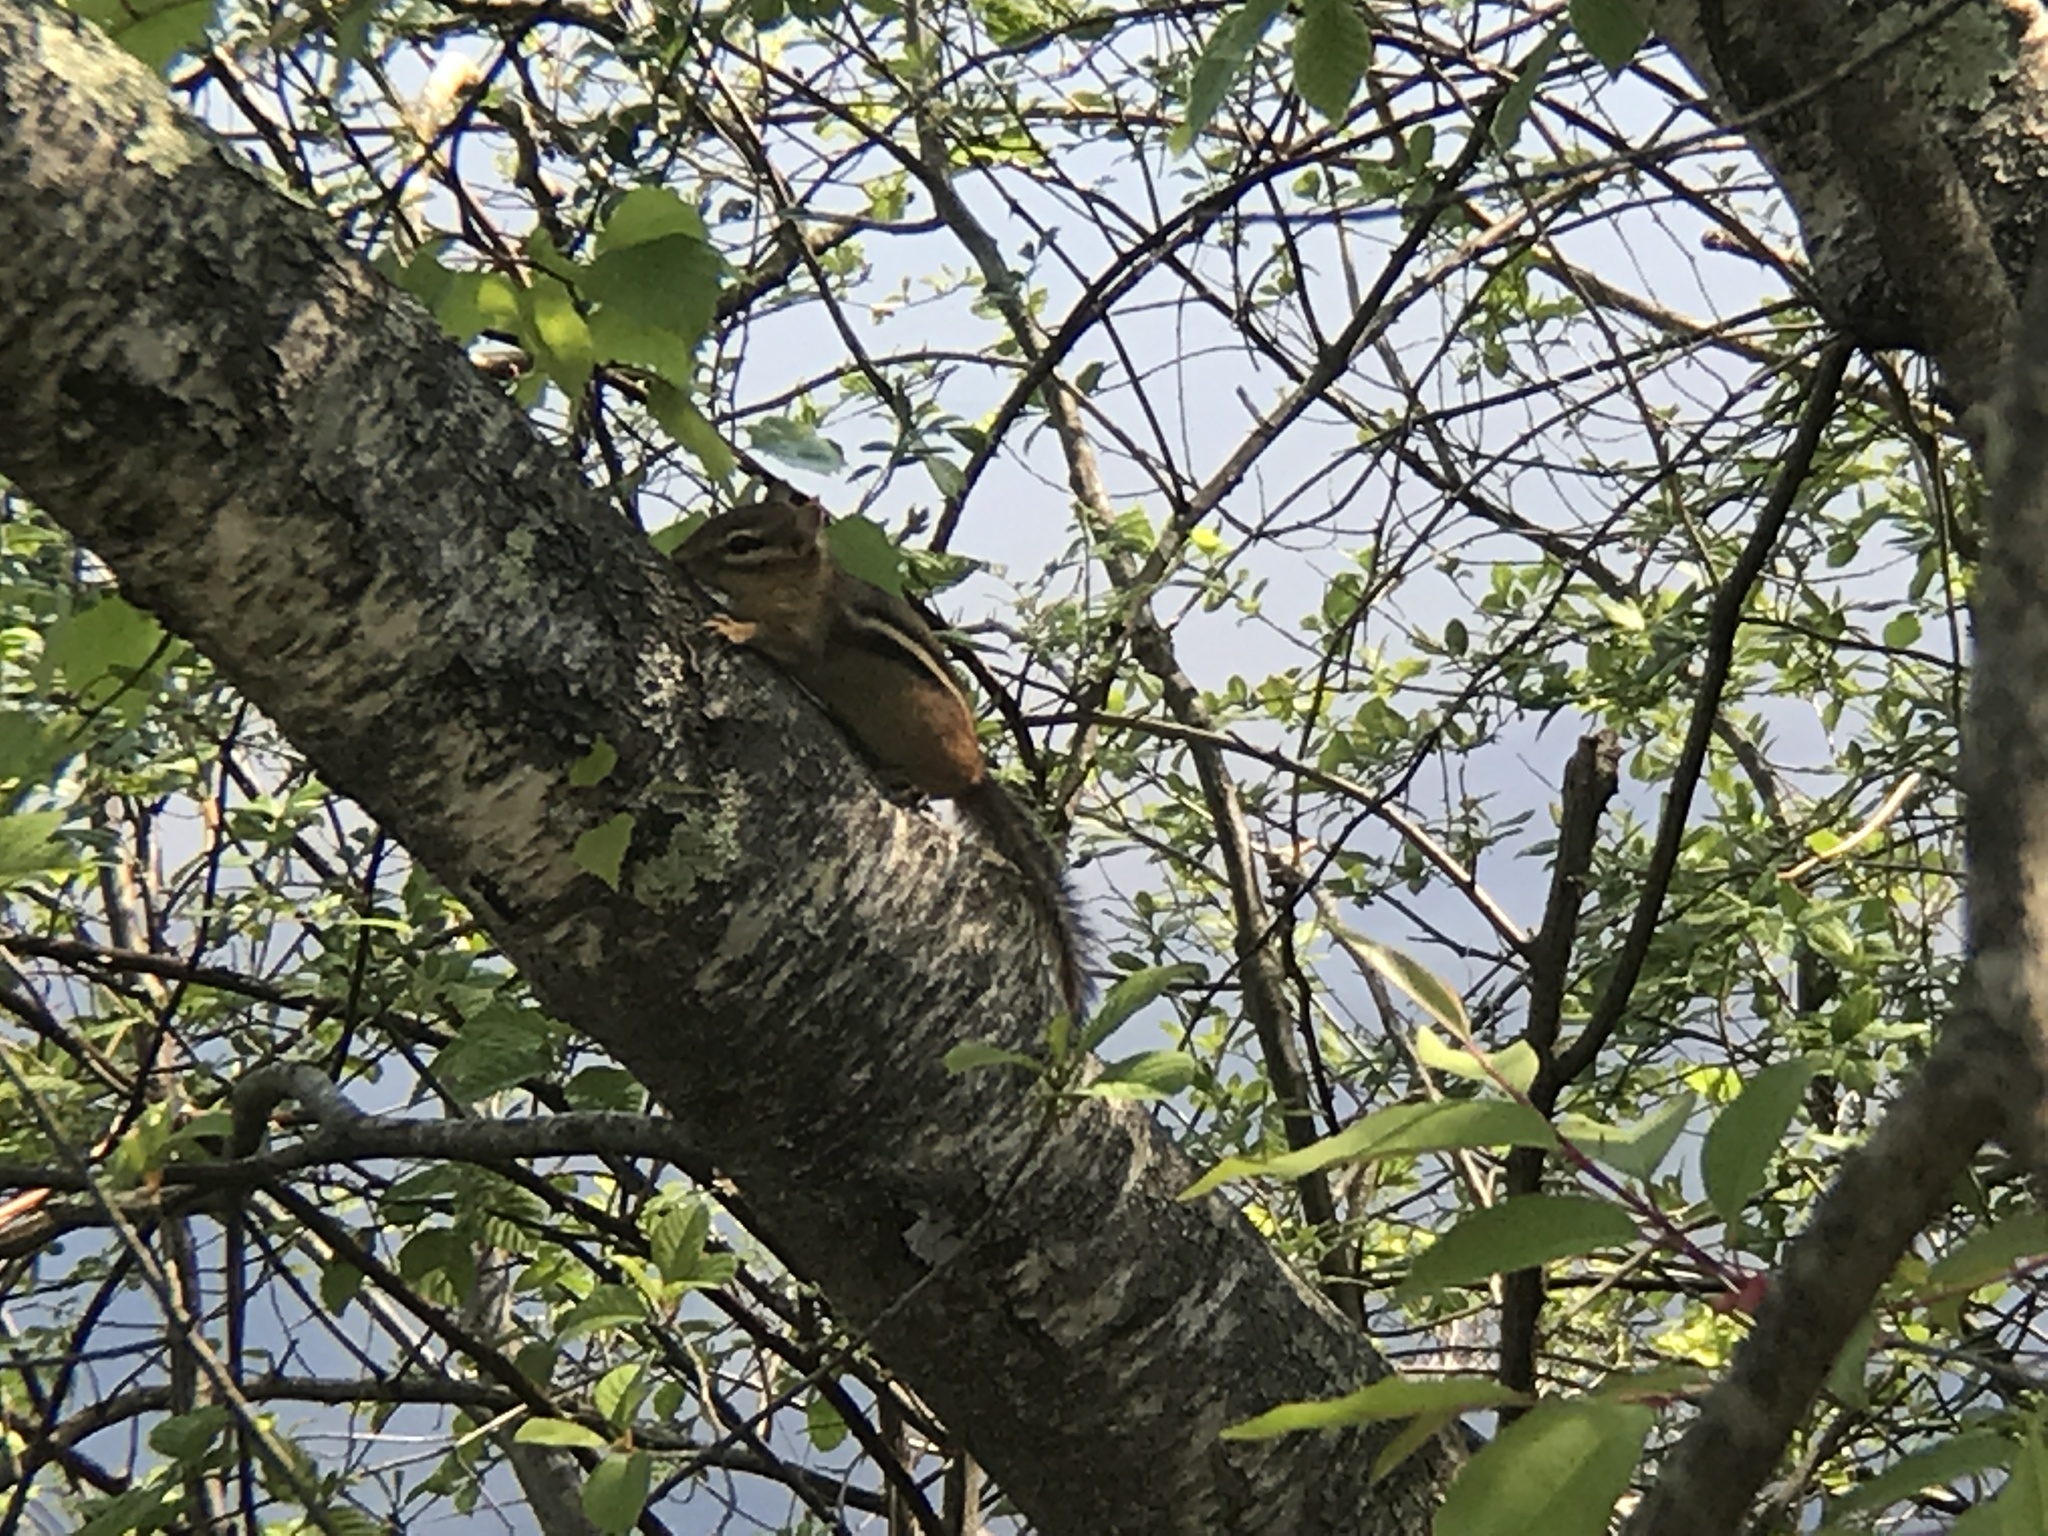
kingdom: Animalia
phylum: Chordata
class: Mammalia
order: Rodentia
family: Sciuridae
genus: Tamias
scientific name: Tamias striatus
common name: Eastern chipmunk
